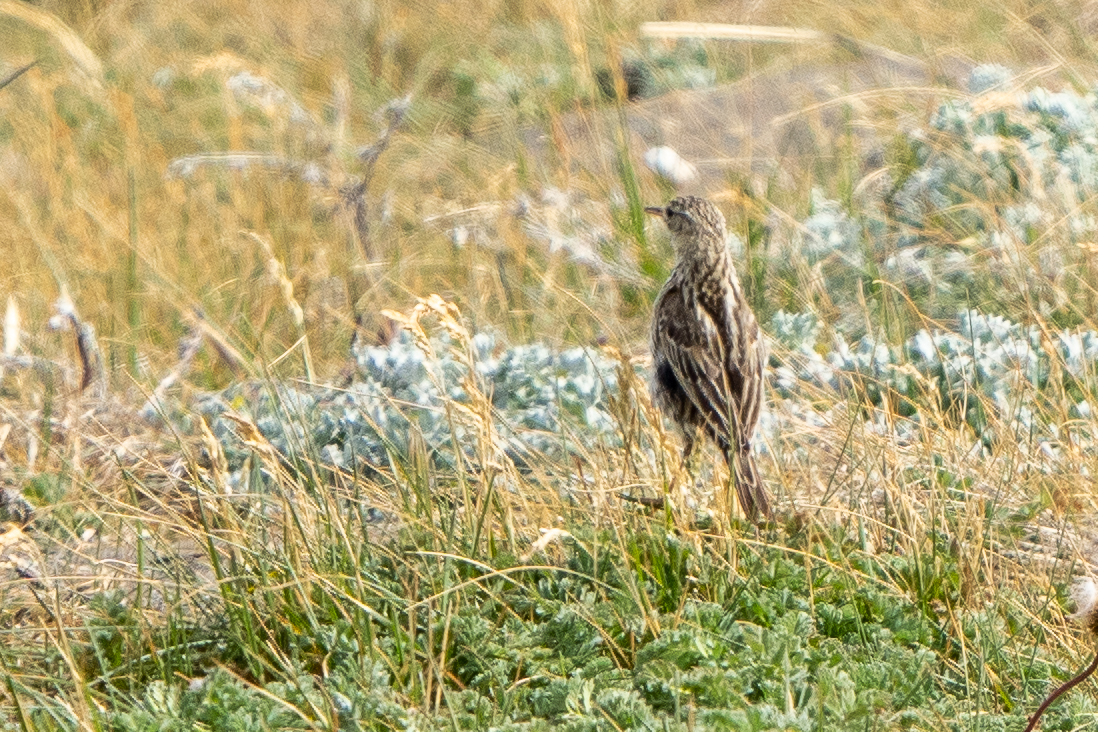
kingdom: Animalia
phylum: Chordata
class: Aves
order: Passeriformes
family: Motacillidae
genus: Anthus
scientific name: Anthus correndera
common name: Correndera pipit
